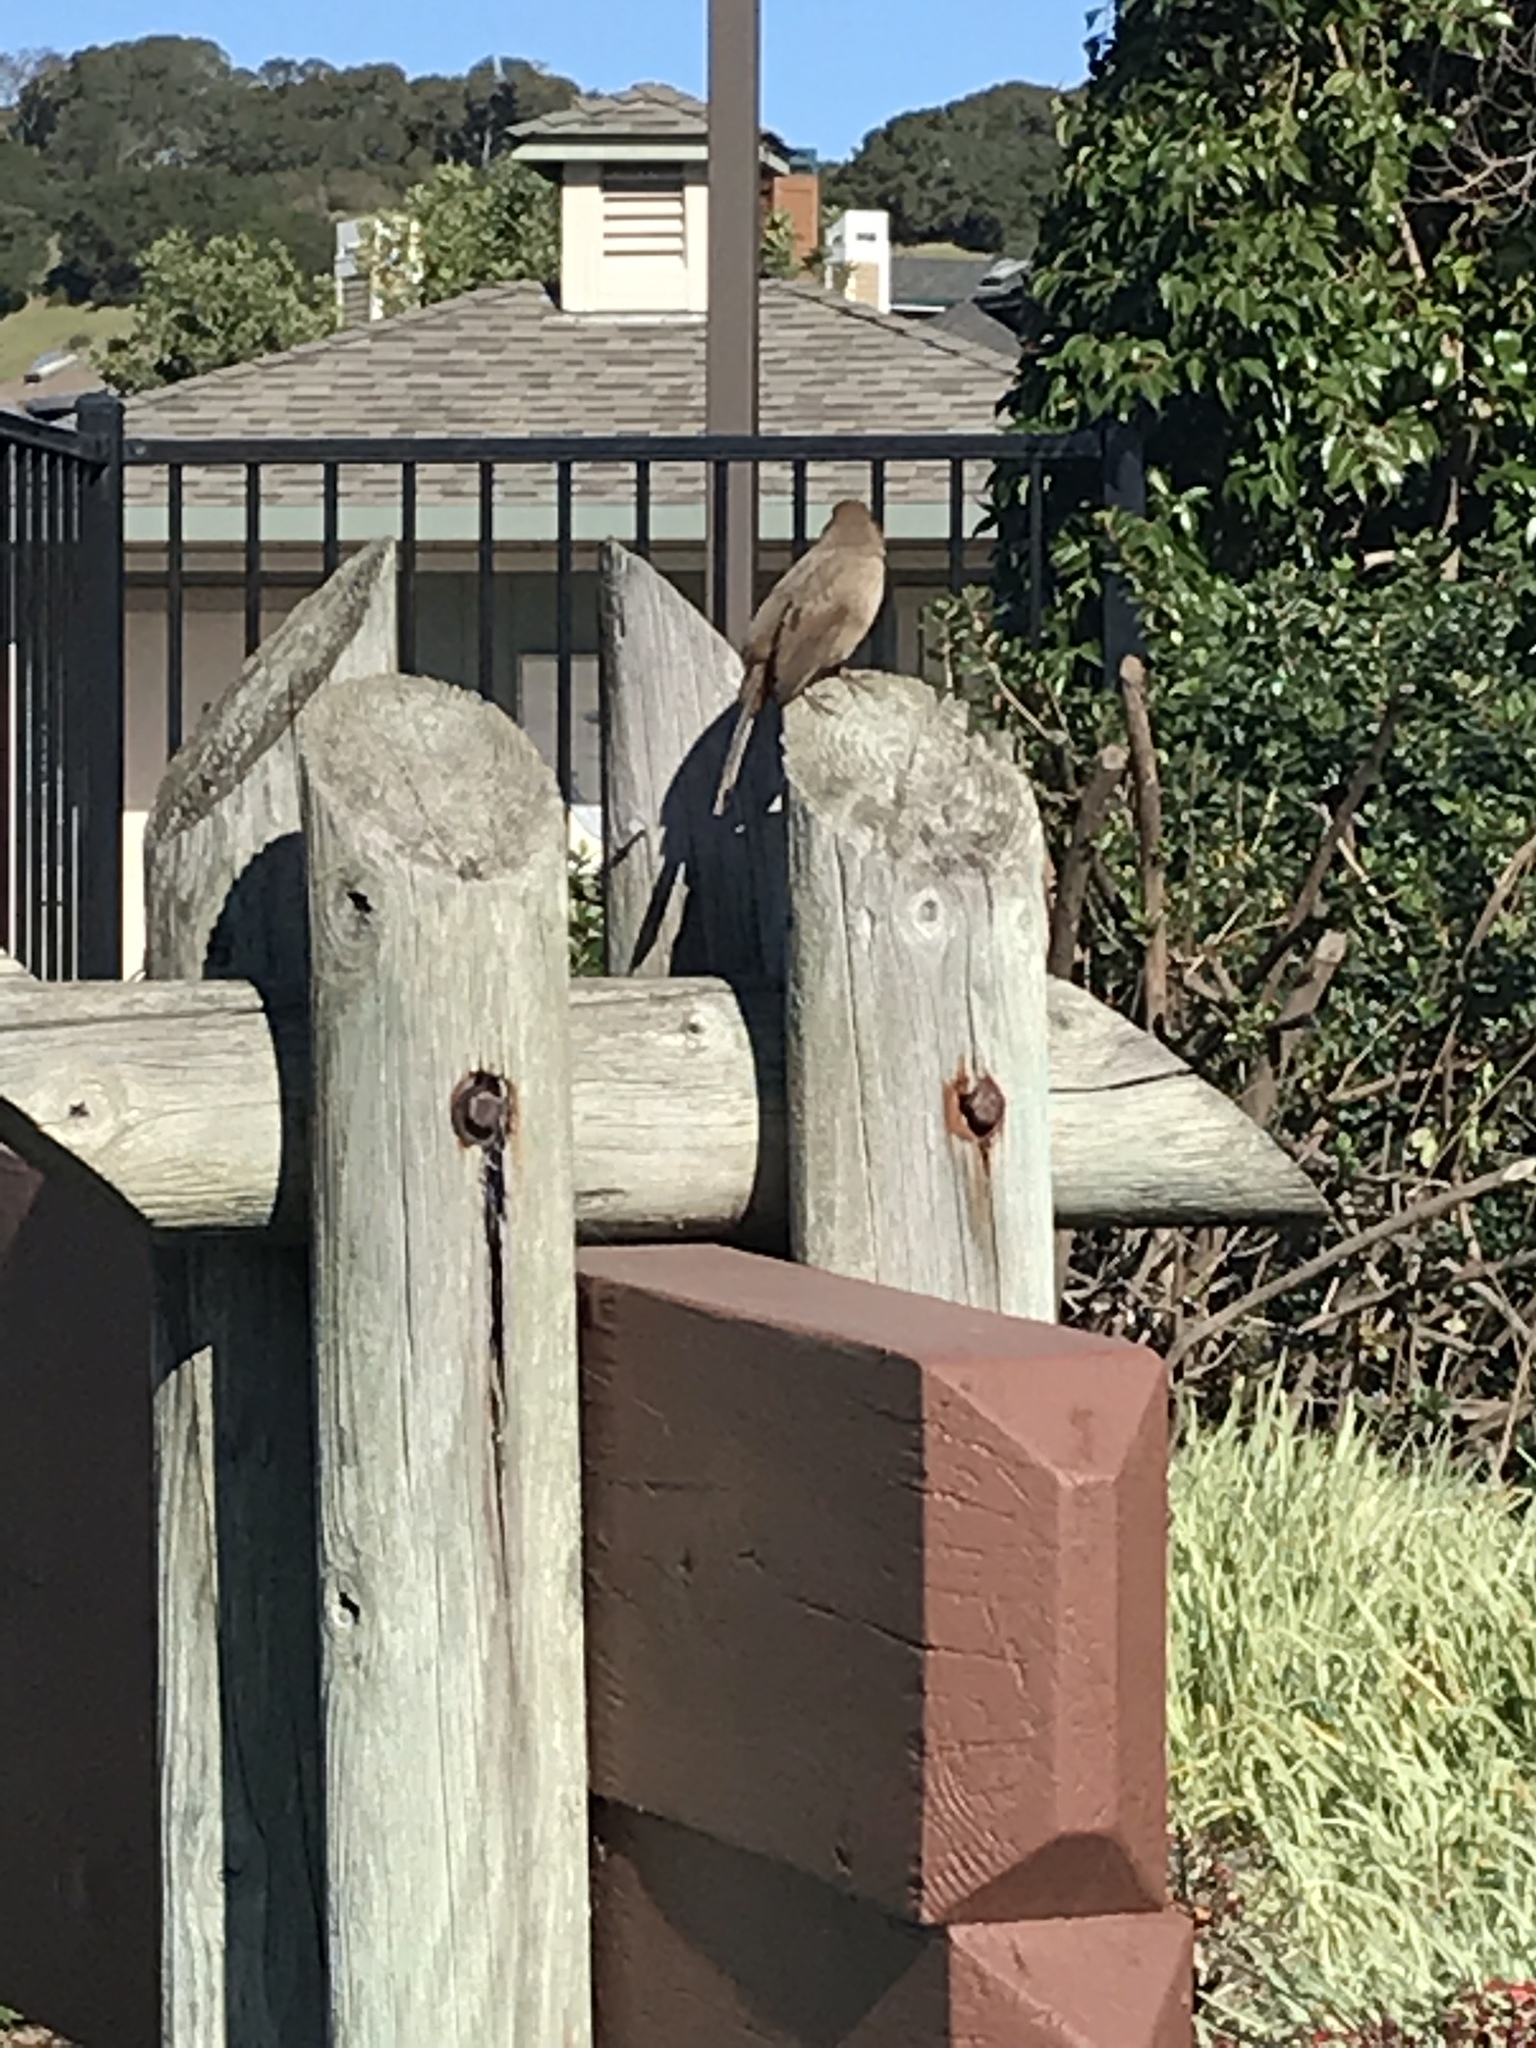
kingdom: Animalia
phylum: Chordata
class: Aves
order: Passeriformes
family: Passerellidae
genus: Melozone
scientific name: Melozone crissalis
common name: California towhee
